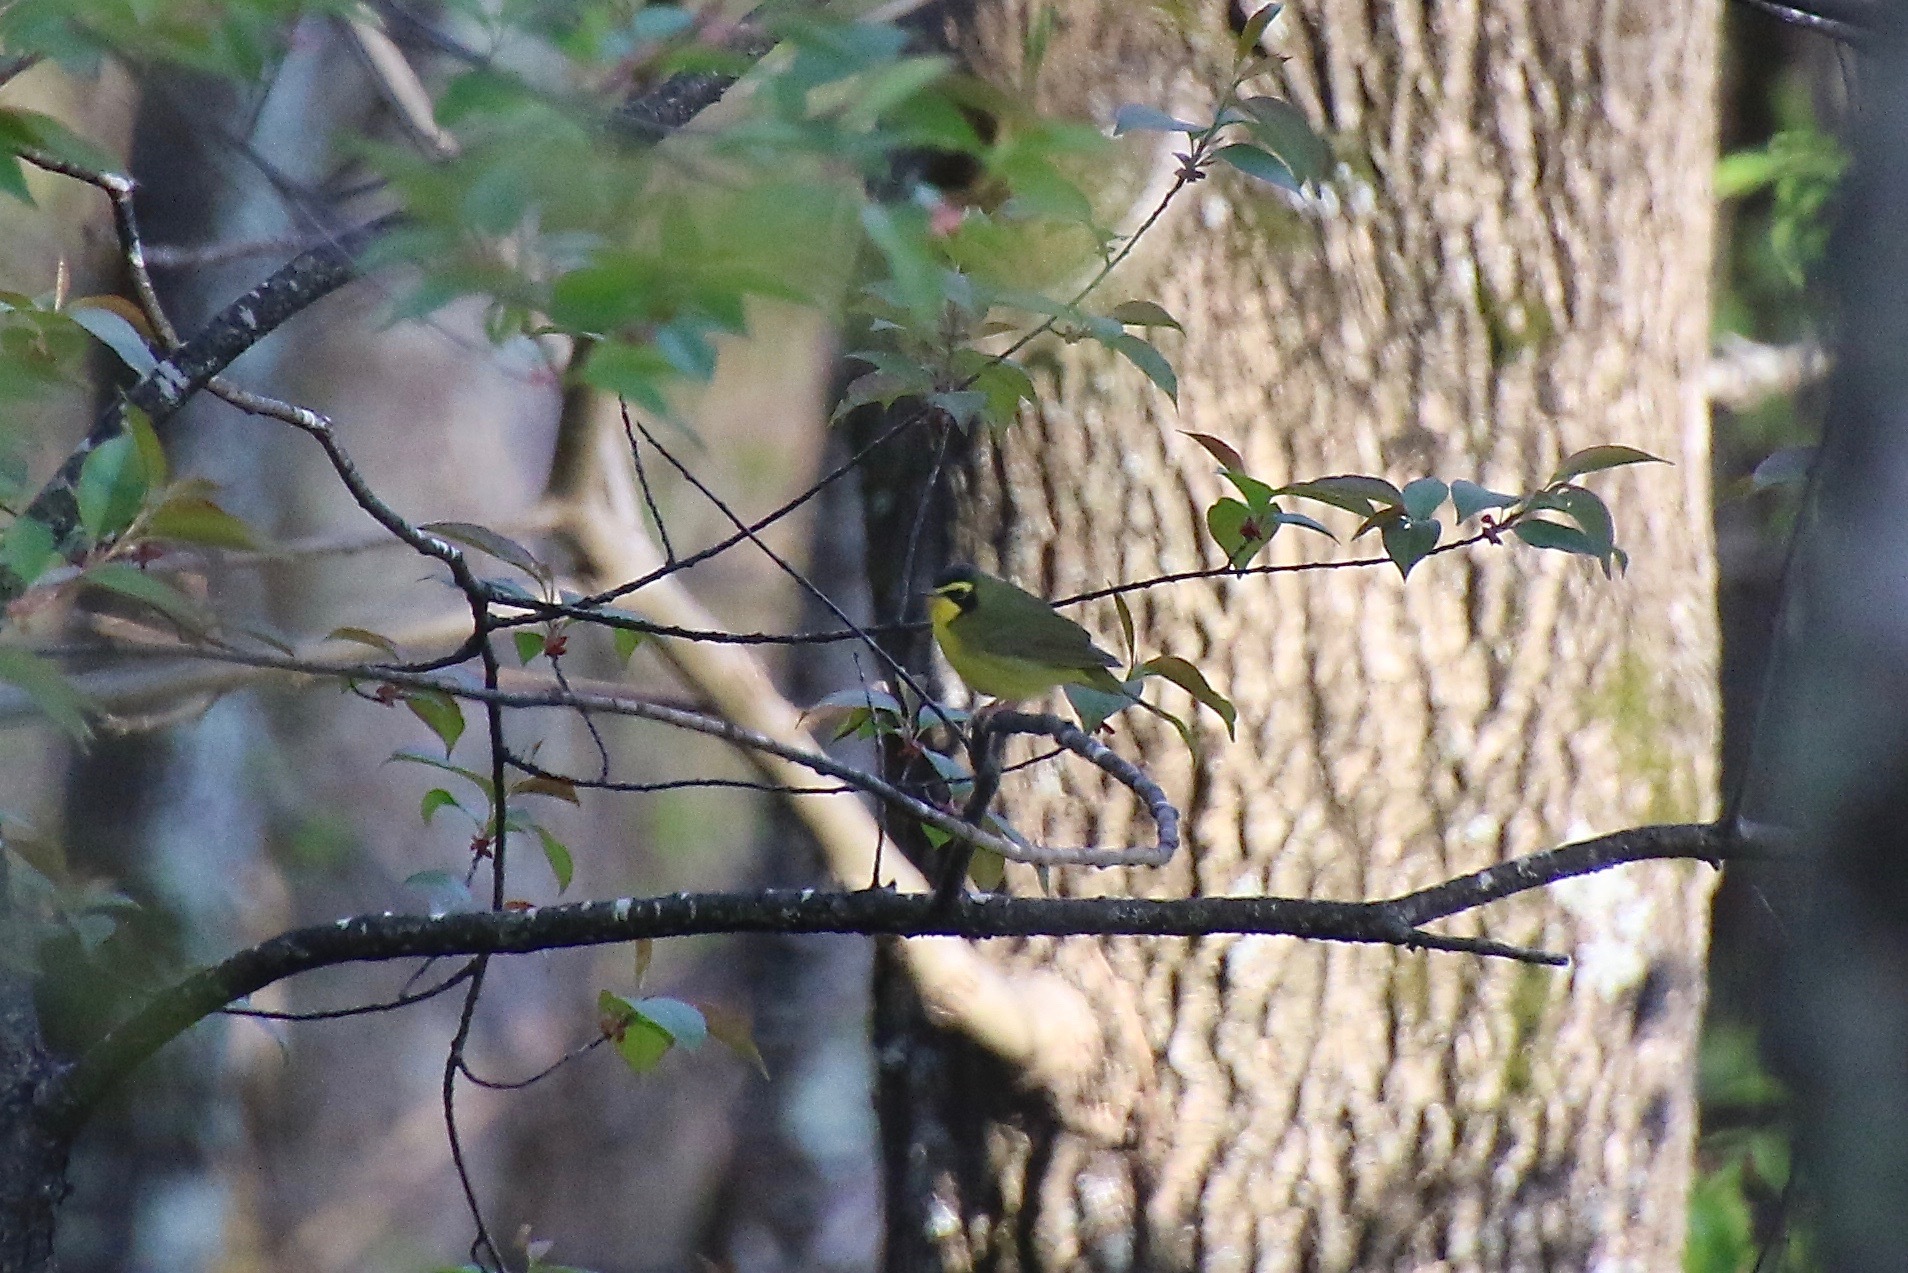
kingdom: Animalia
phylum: Chordata
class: Aves
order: Passeriformes
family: Parulidae
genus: Geothlypis
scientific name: Geothlypis formosa
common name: Kentucky warbler
